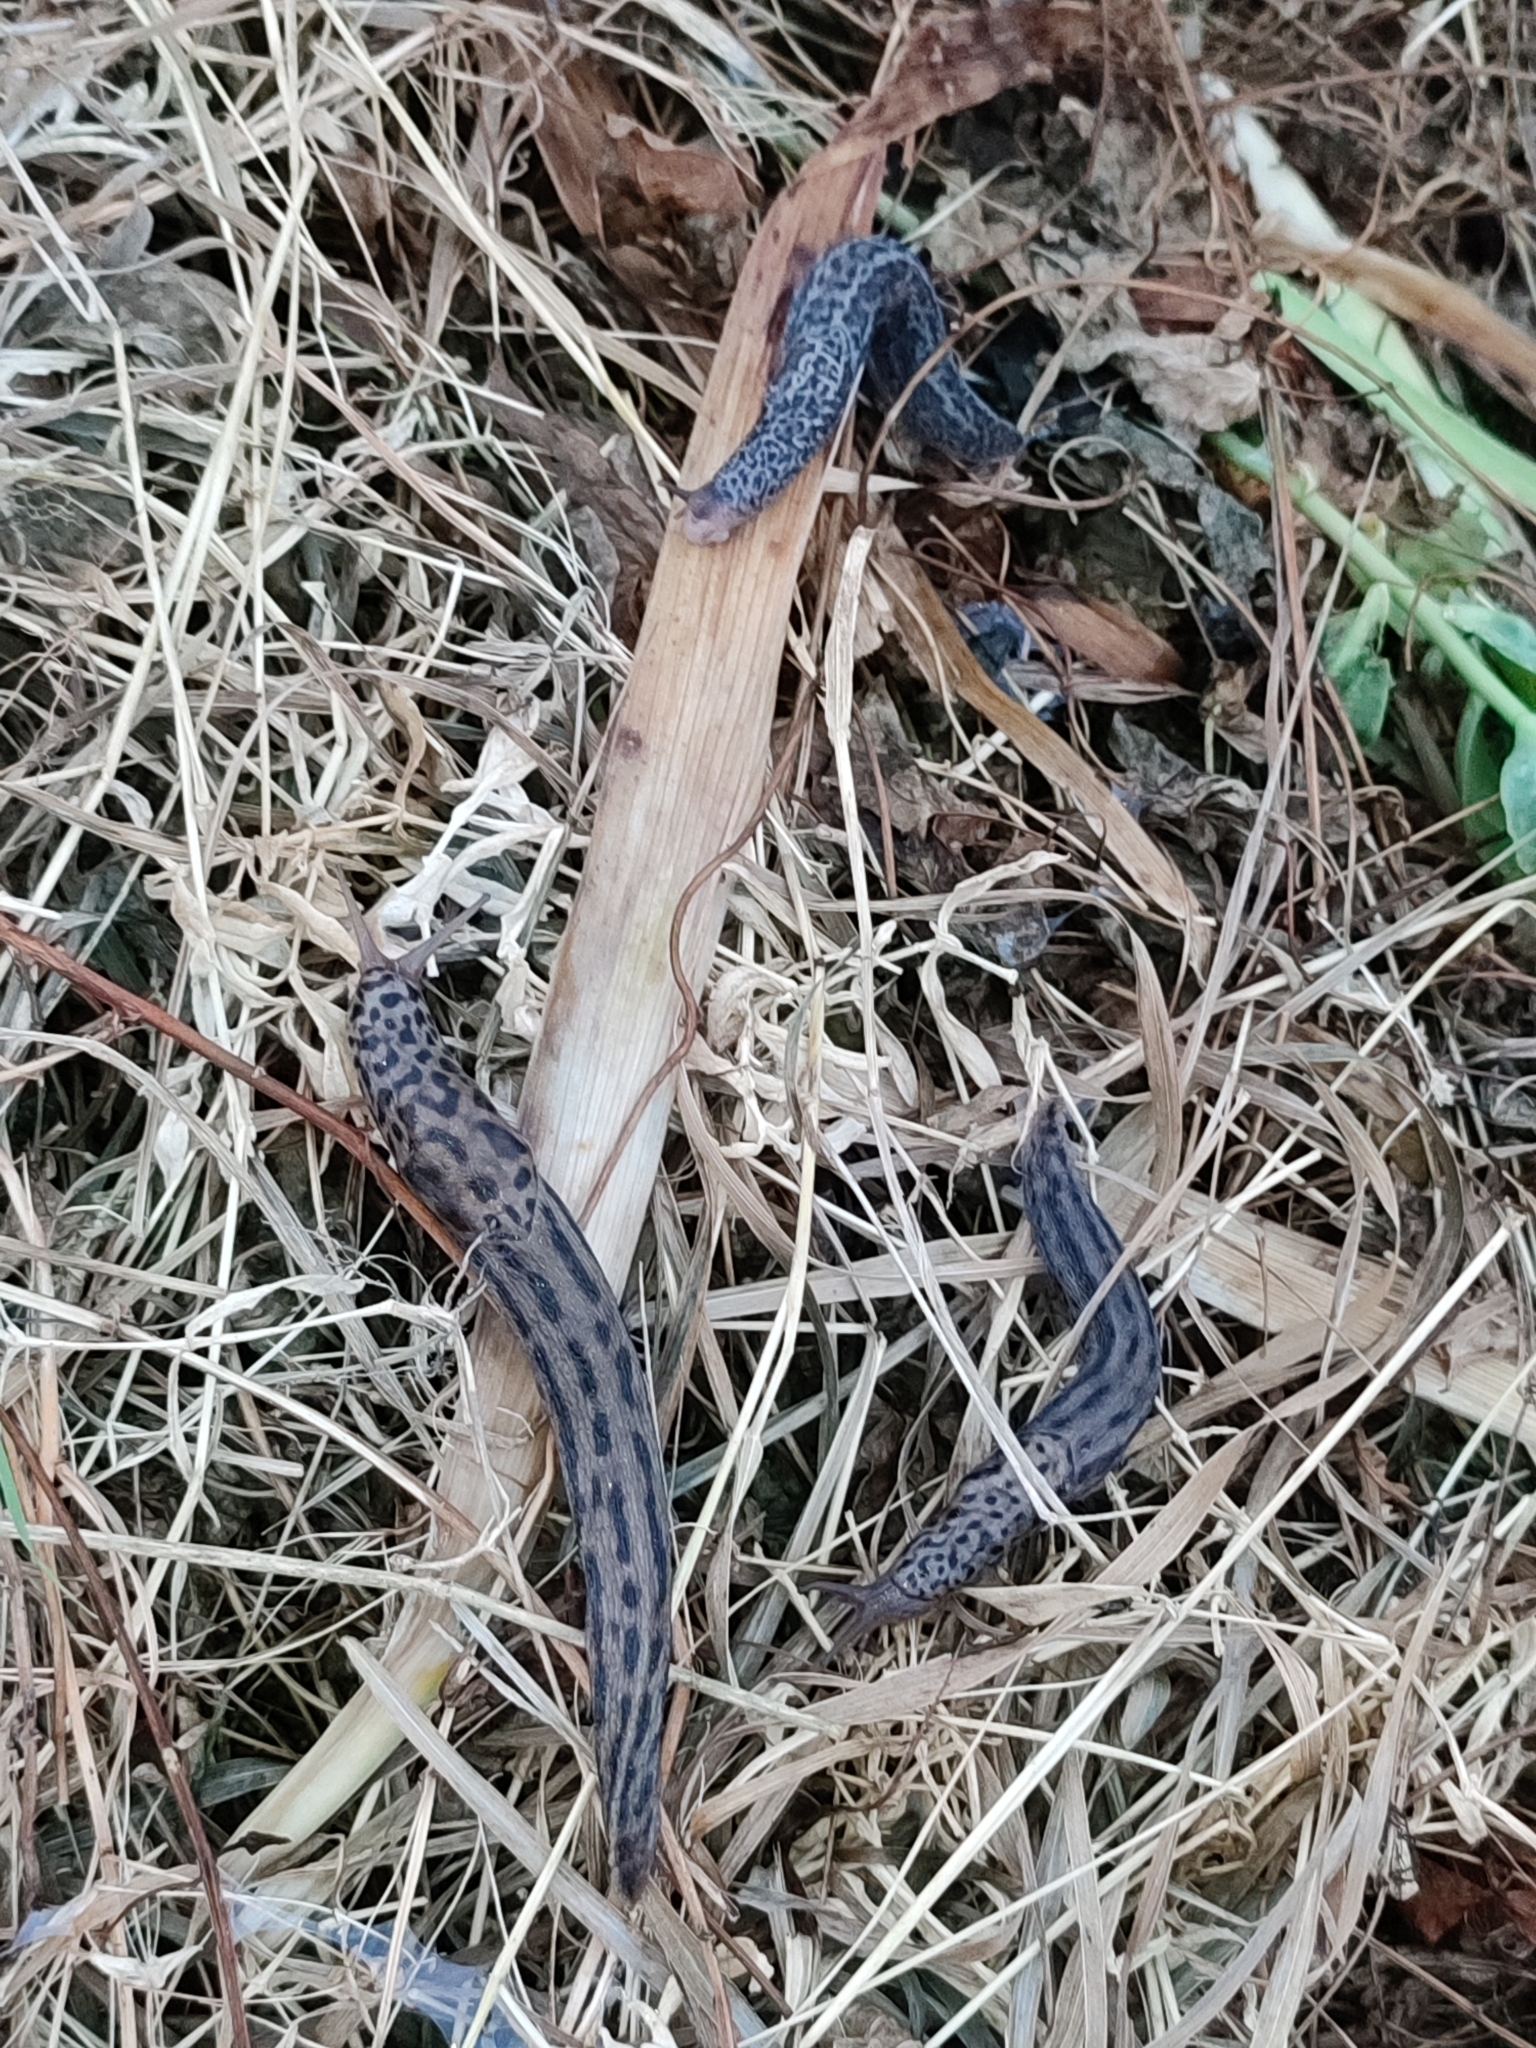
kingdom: Animalia
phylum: Mollusca
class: Gastropoda
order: Stylommatophora
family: Limacidae
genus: Limax
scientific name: Limax maximus
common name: Great grey slug
